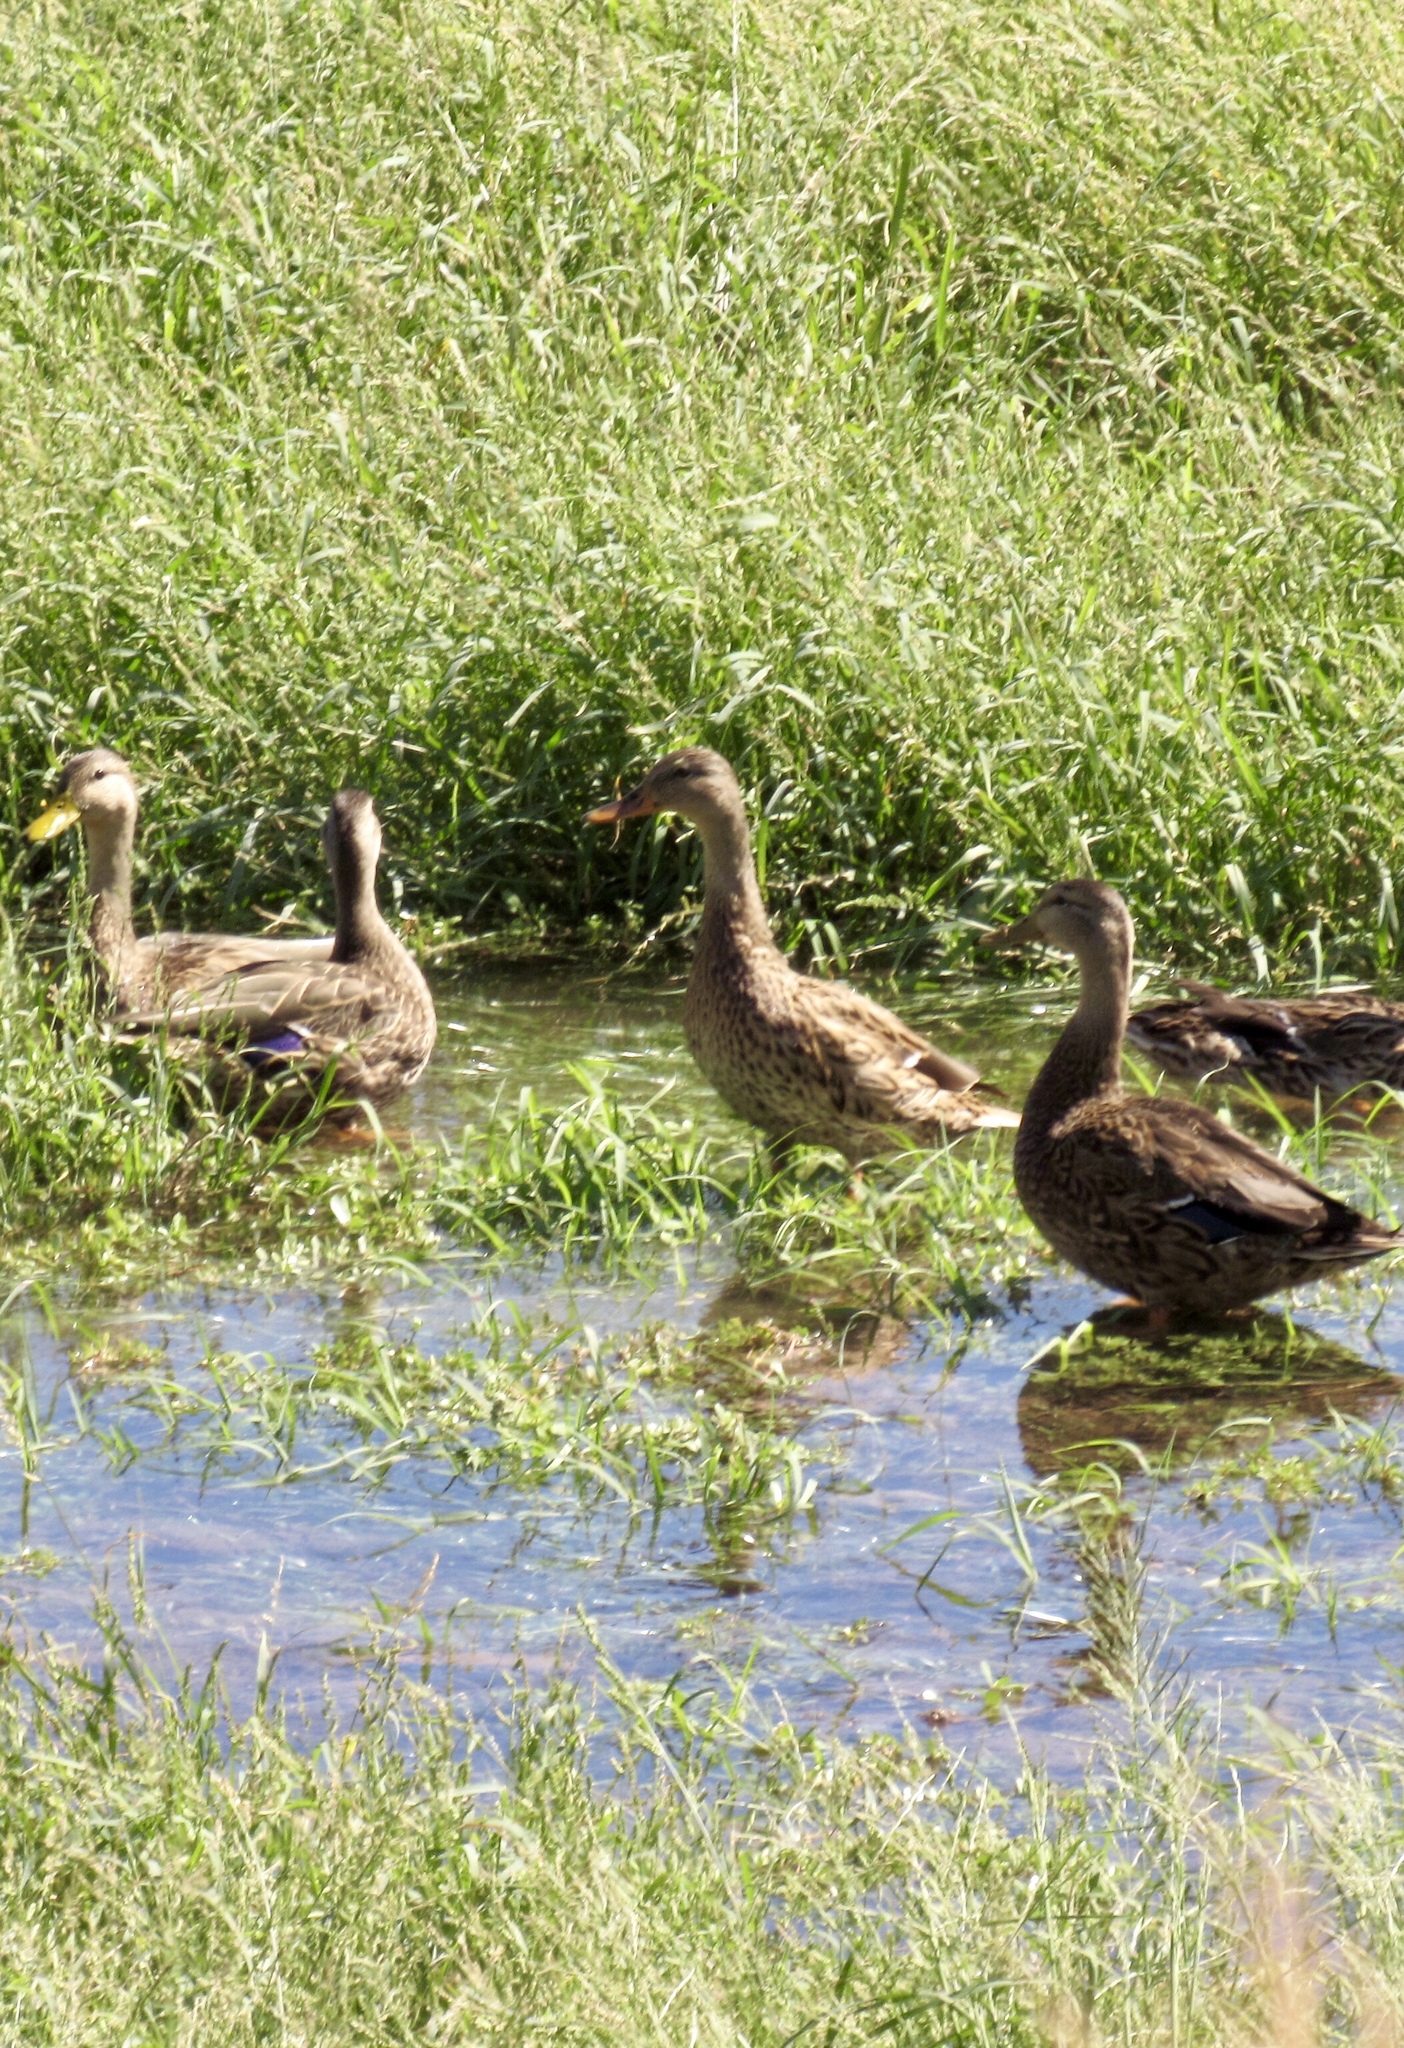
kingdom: Animalia
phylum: Chordata
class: Aves
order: Anseriformes
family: Anatidae
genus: Anas
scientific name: Anas platyrhynchos
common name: Mallard
